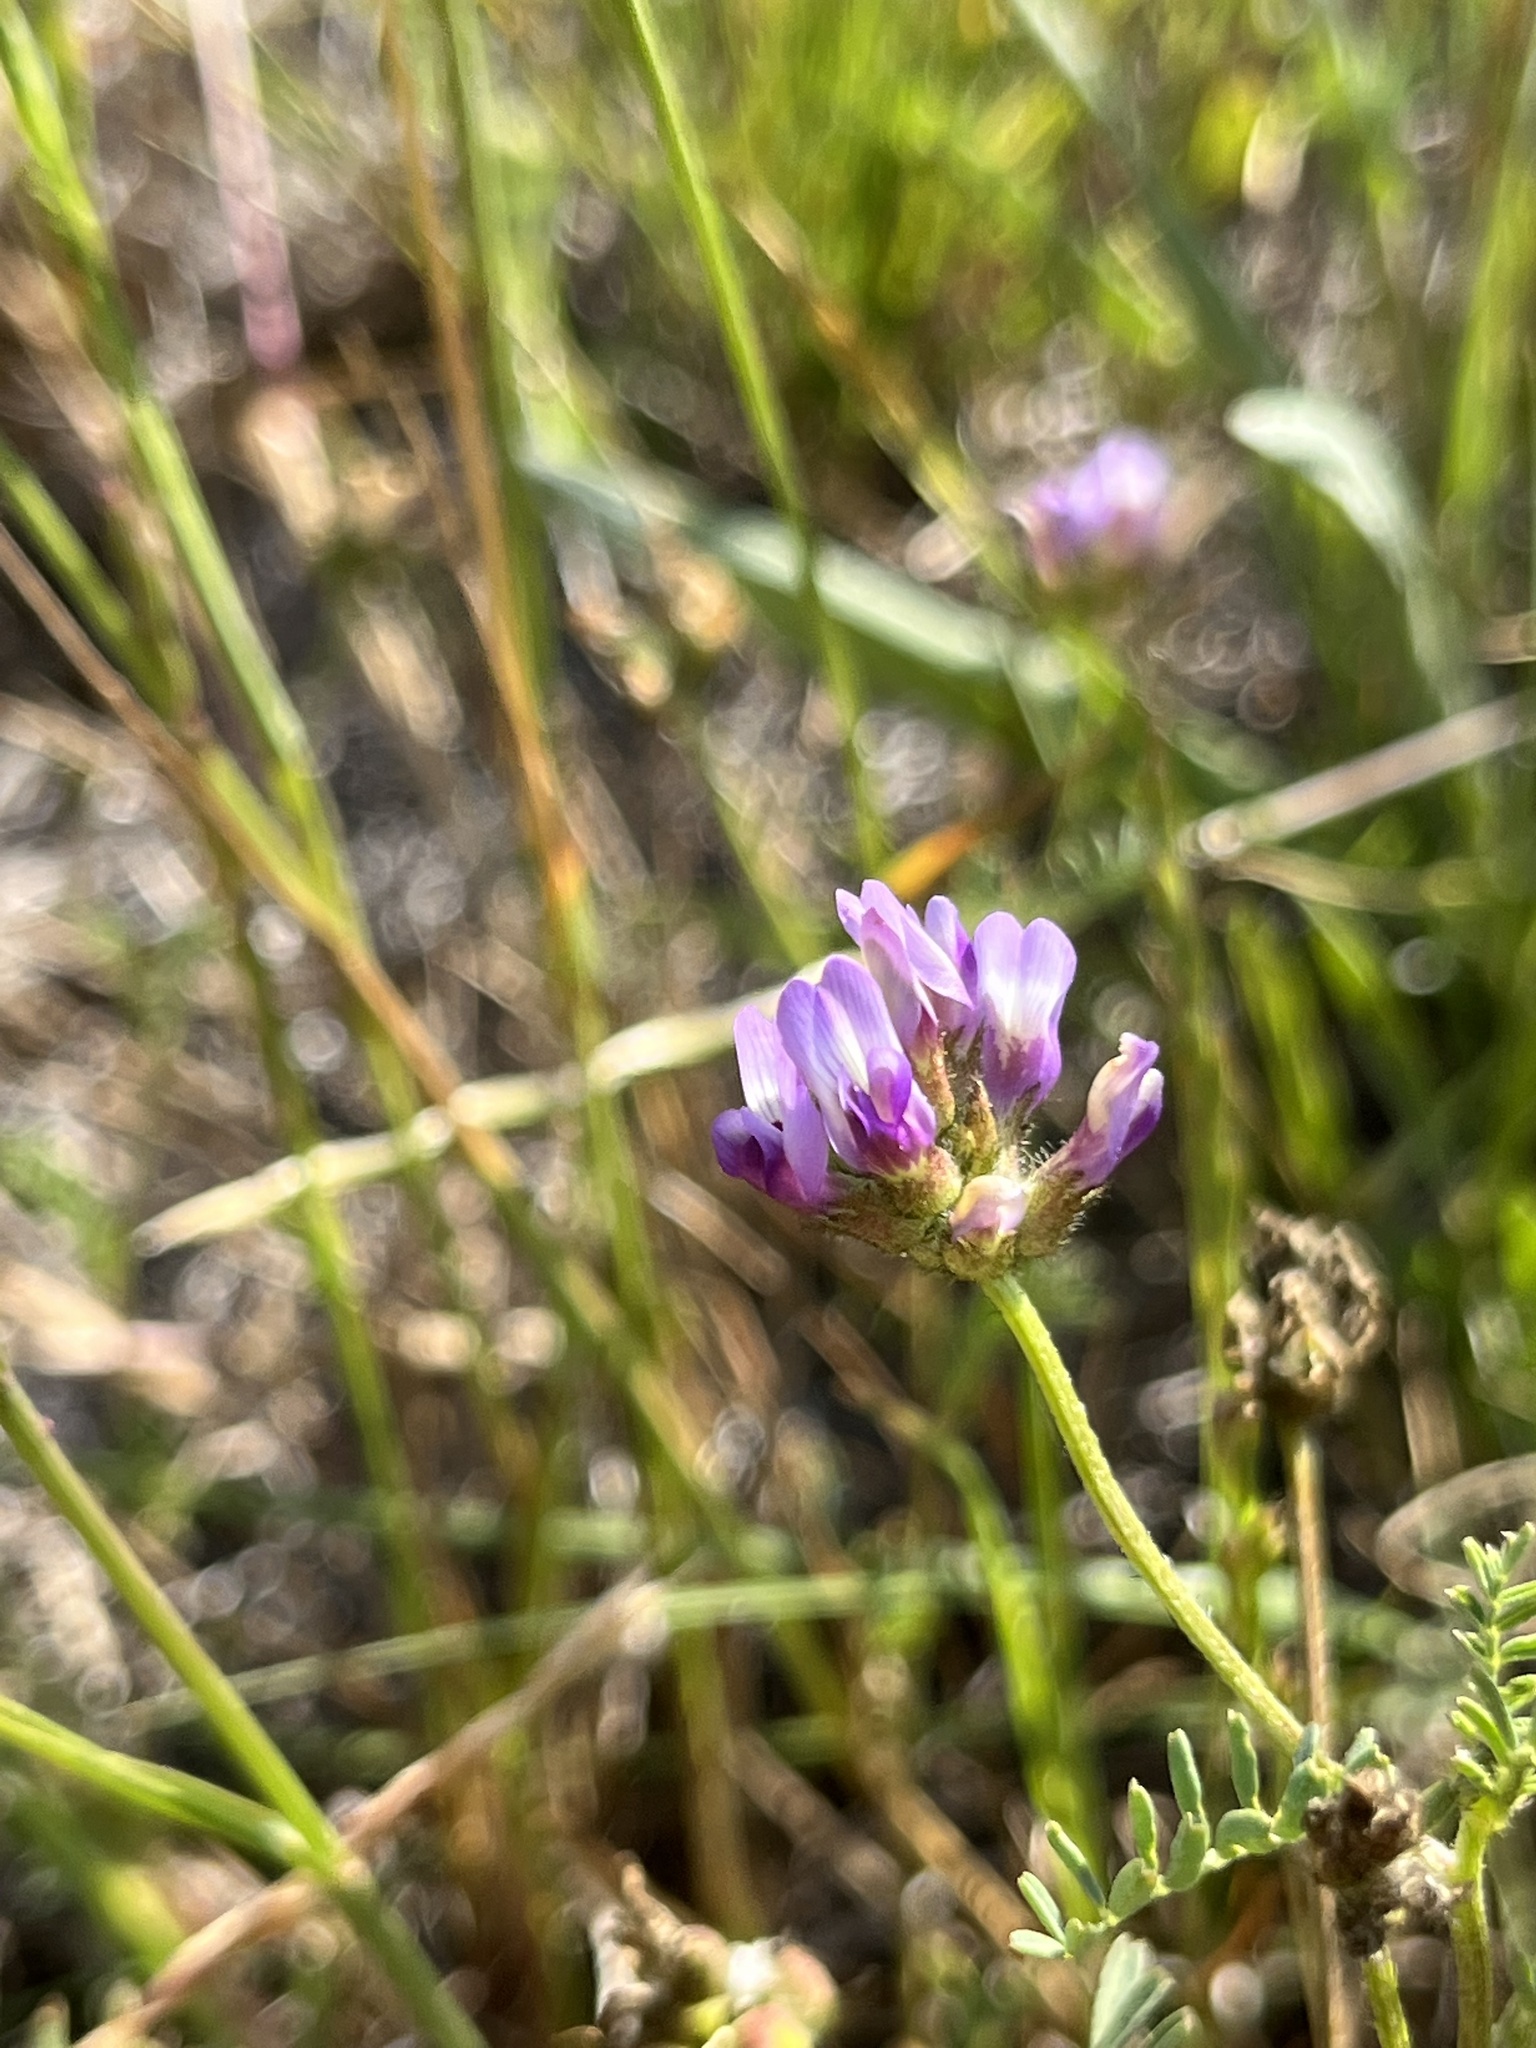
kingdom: Plantae
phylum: Tracheophyta
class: Magnoliopsida
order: Fabales
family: Fabaceae
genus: Astragalus
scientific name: Astragalus didymocarpus
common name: Dwarf white milkvetch
